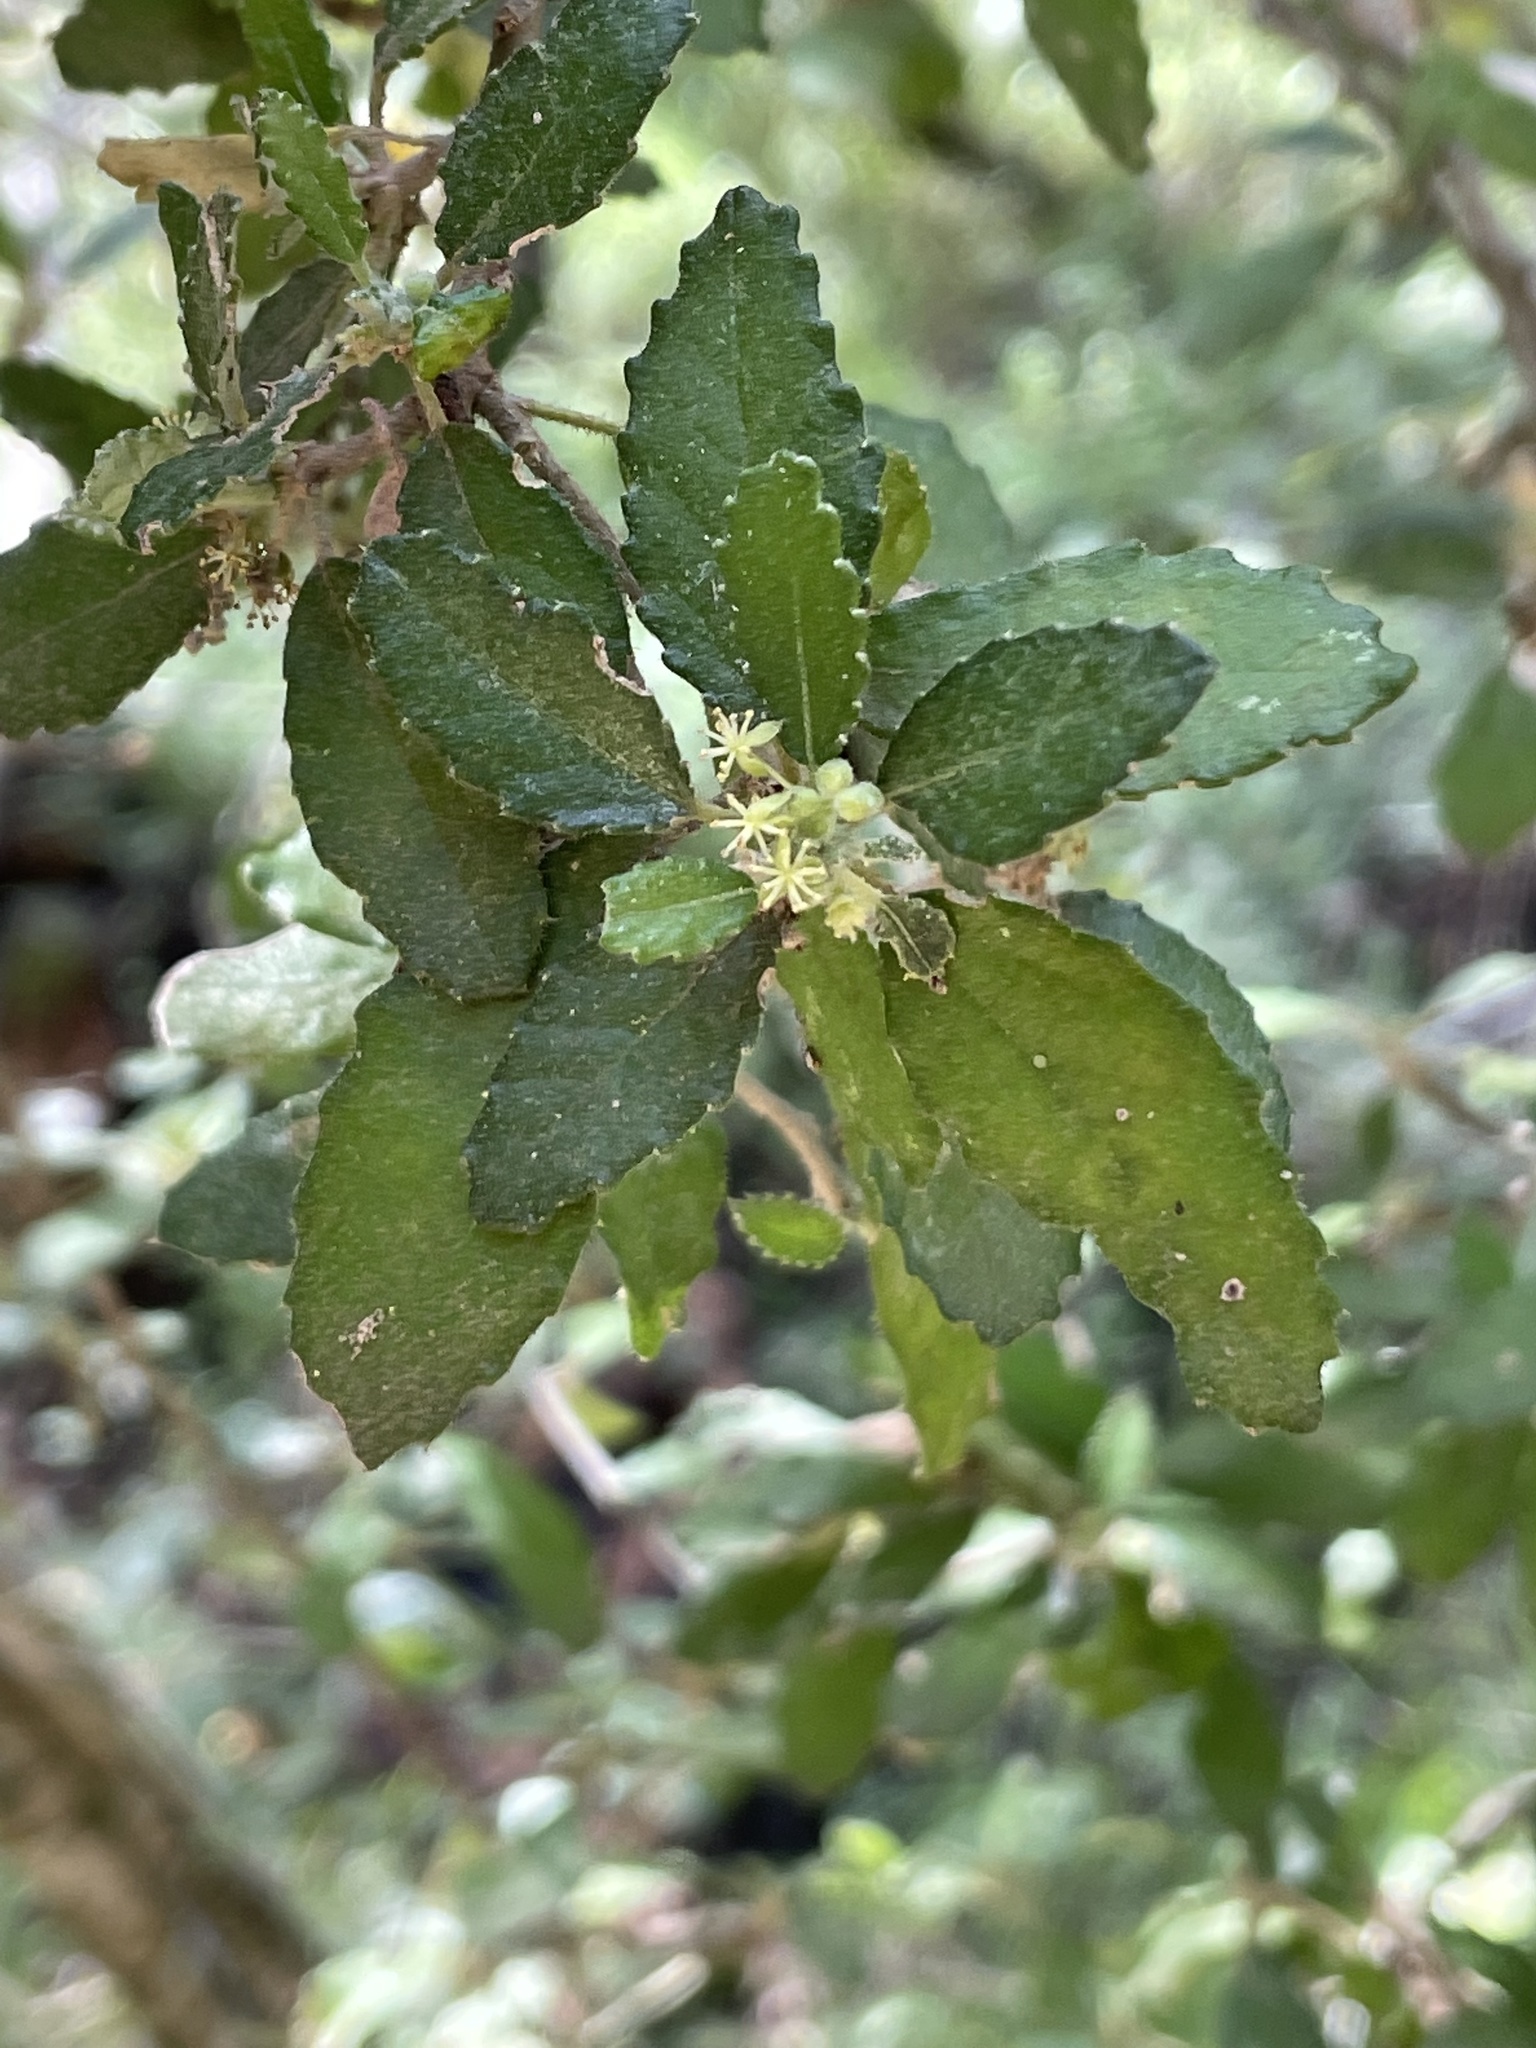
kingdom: Plantae
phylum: Tracheophyta
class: Magnoliopsida
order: Malpighiales
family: Euphorbiaceae
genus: Bernardia
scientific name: Bernardia myricifolia
